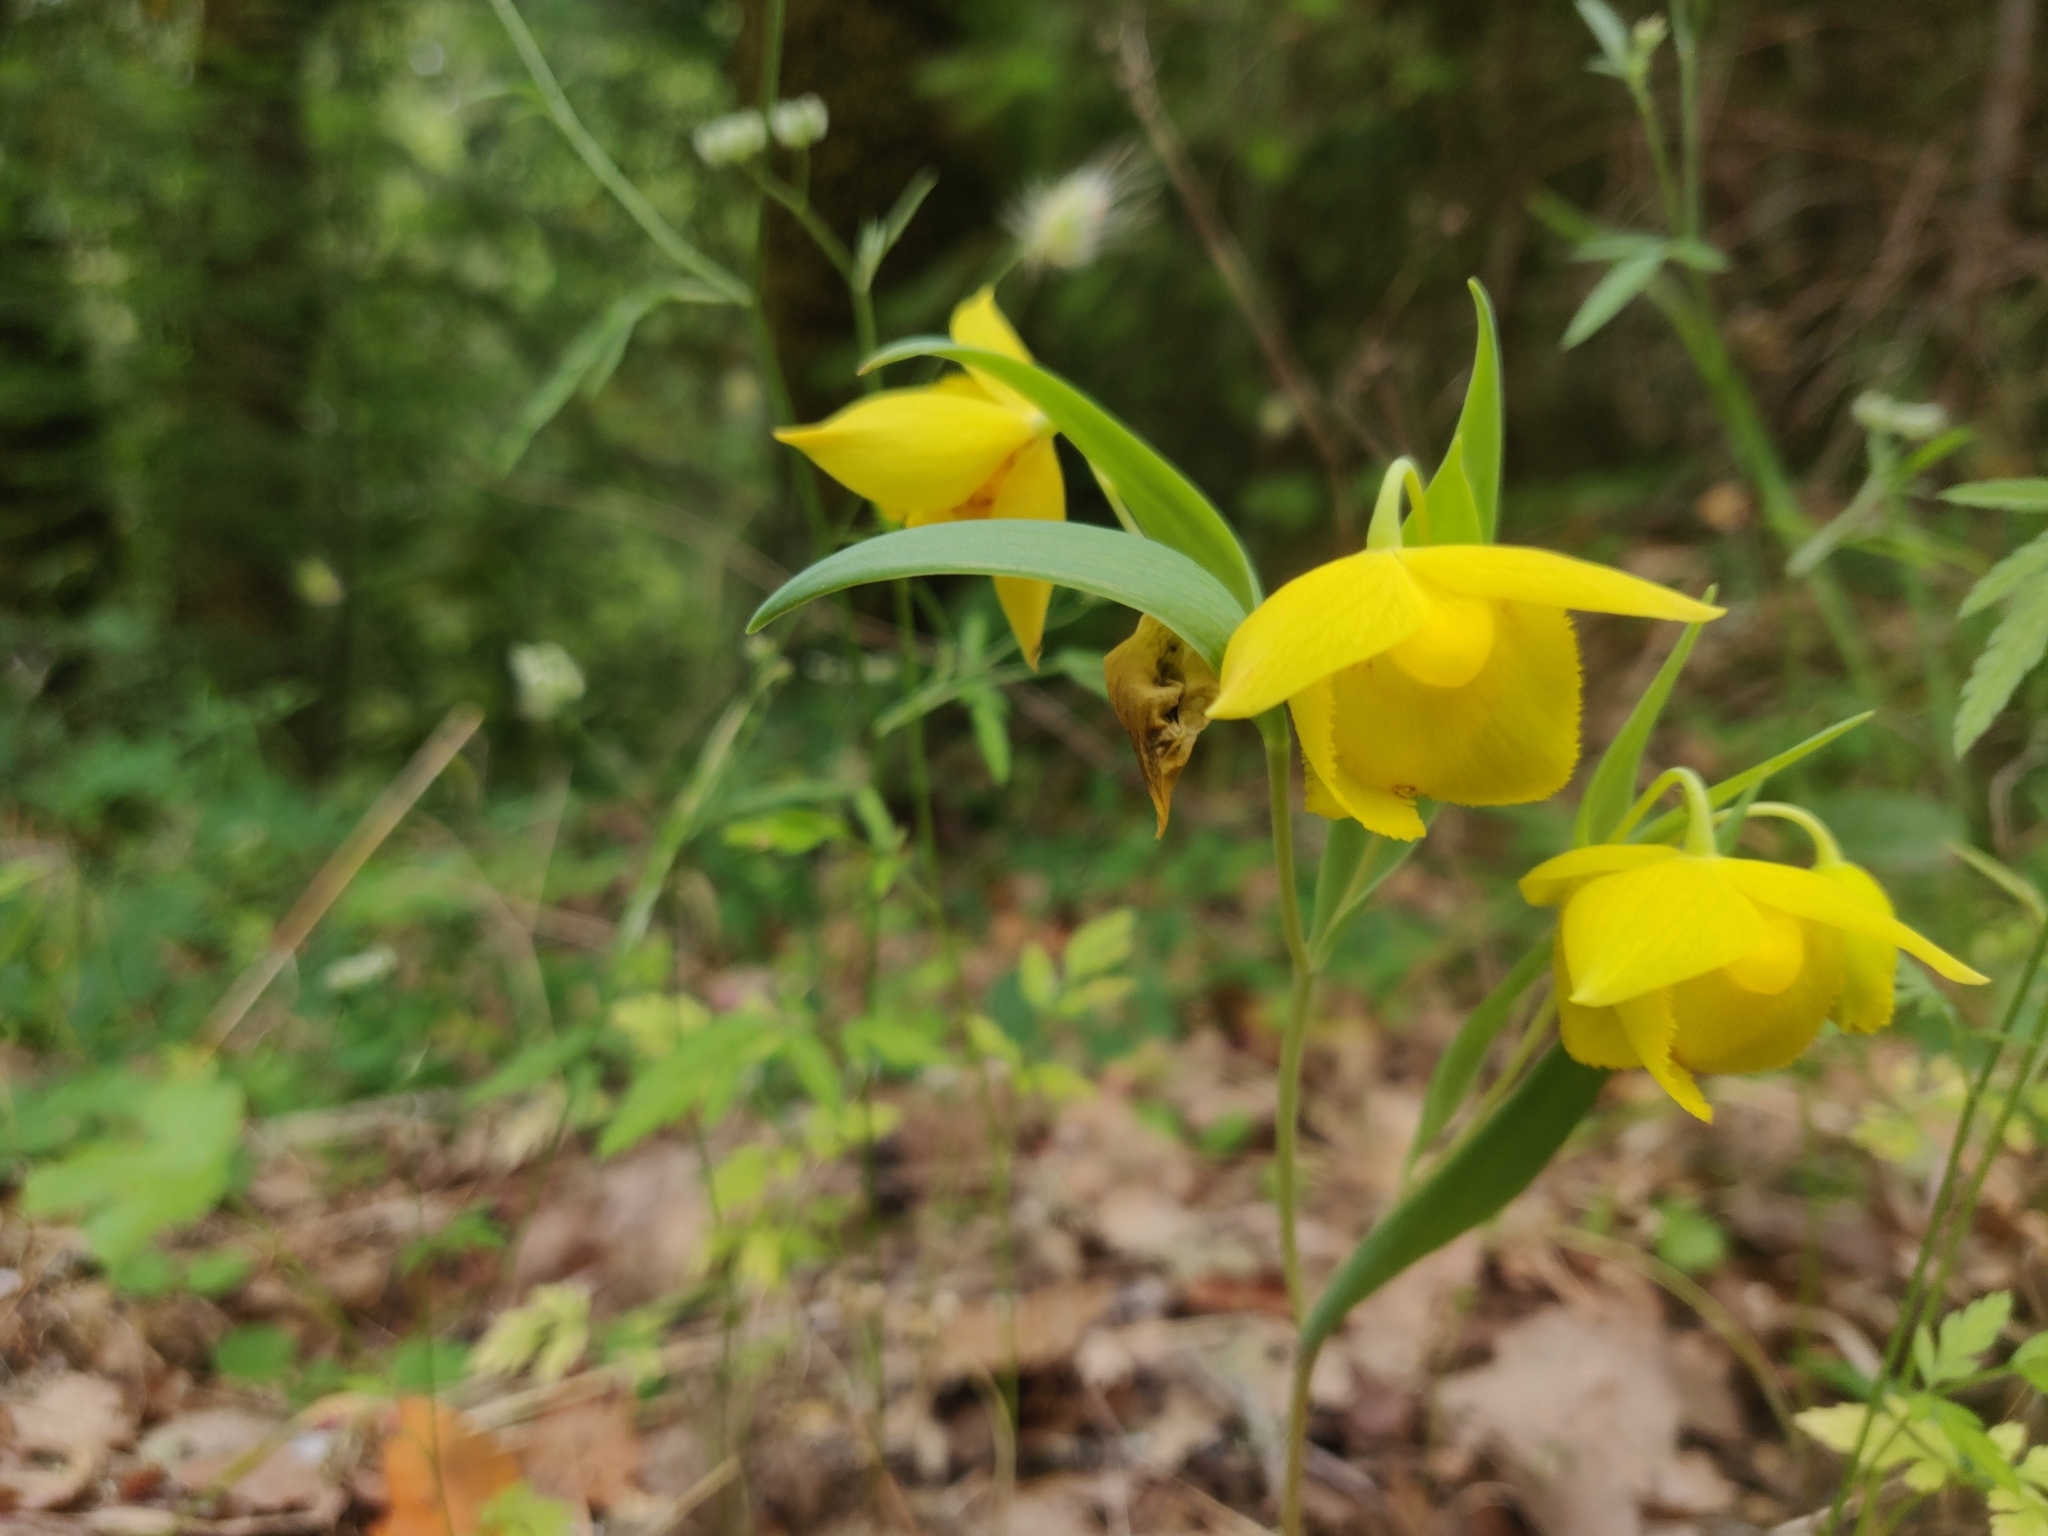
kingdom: Plantae
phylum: Tracheophyta
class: Liliopsida
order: Liliales
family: Liliaceae
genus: Calochortus
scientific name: Calochortus amabilis
